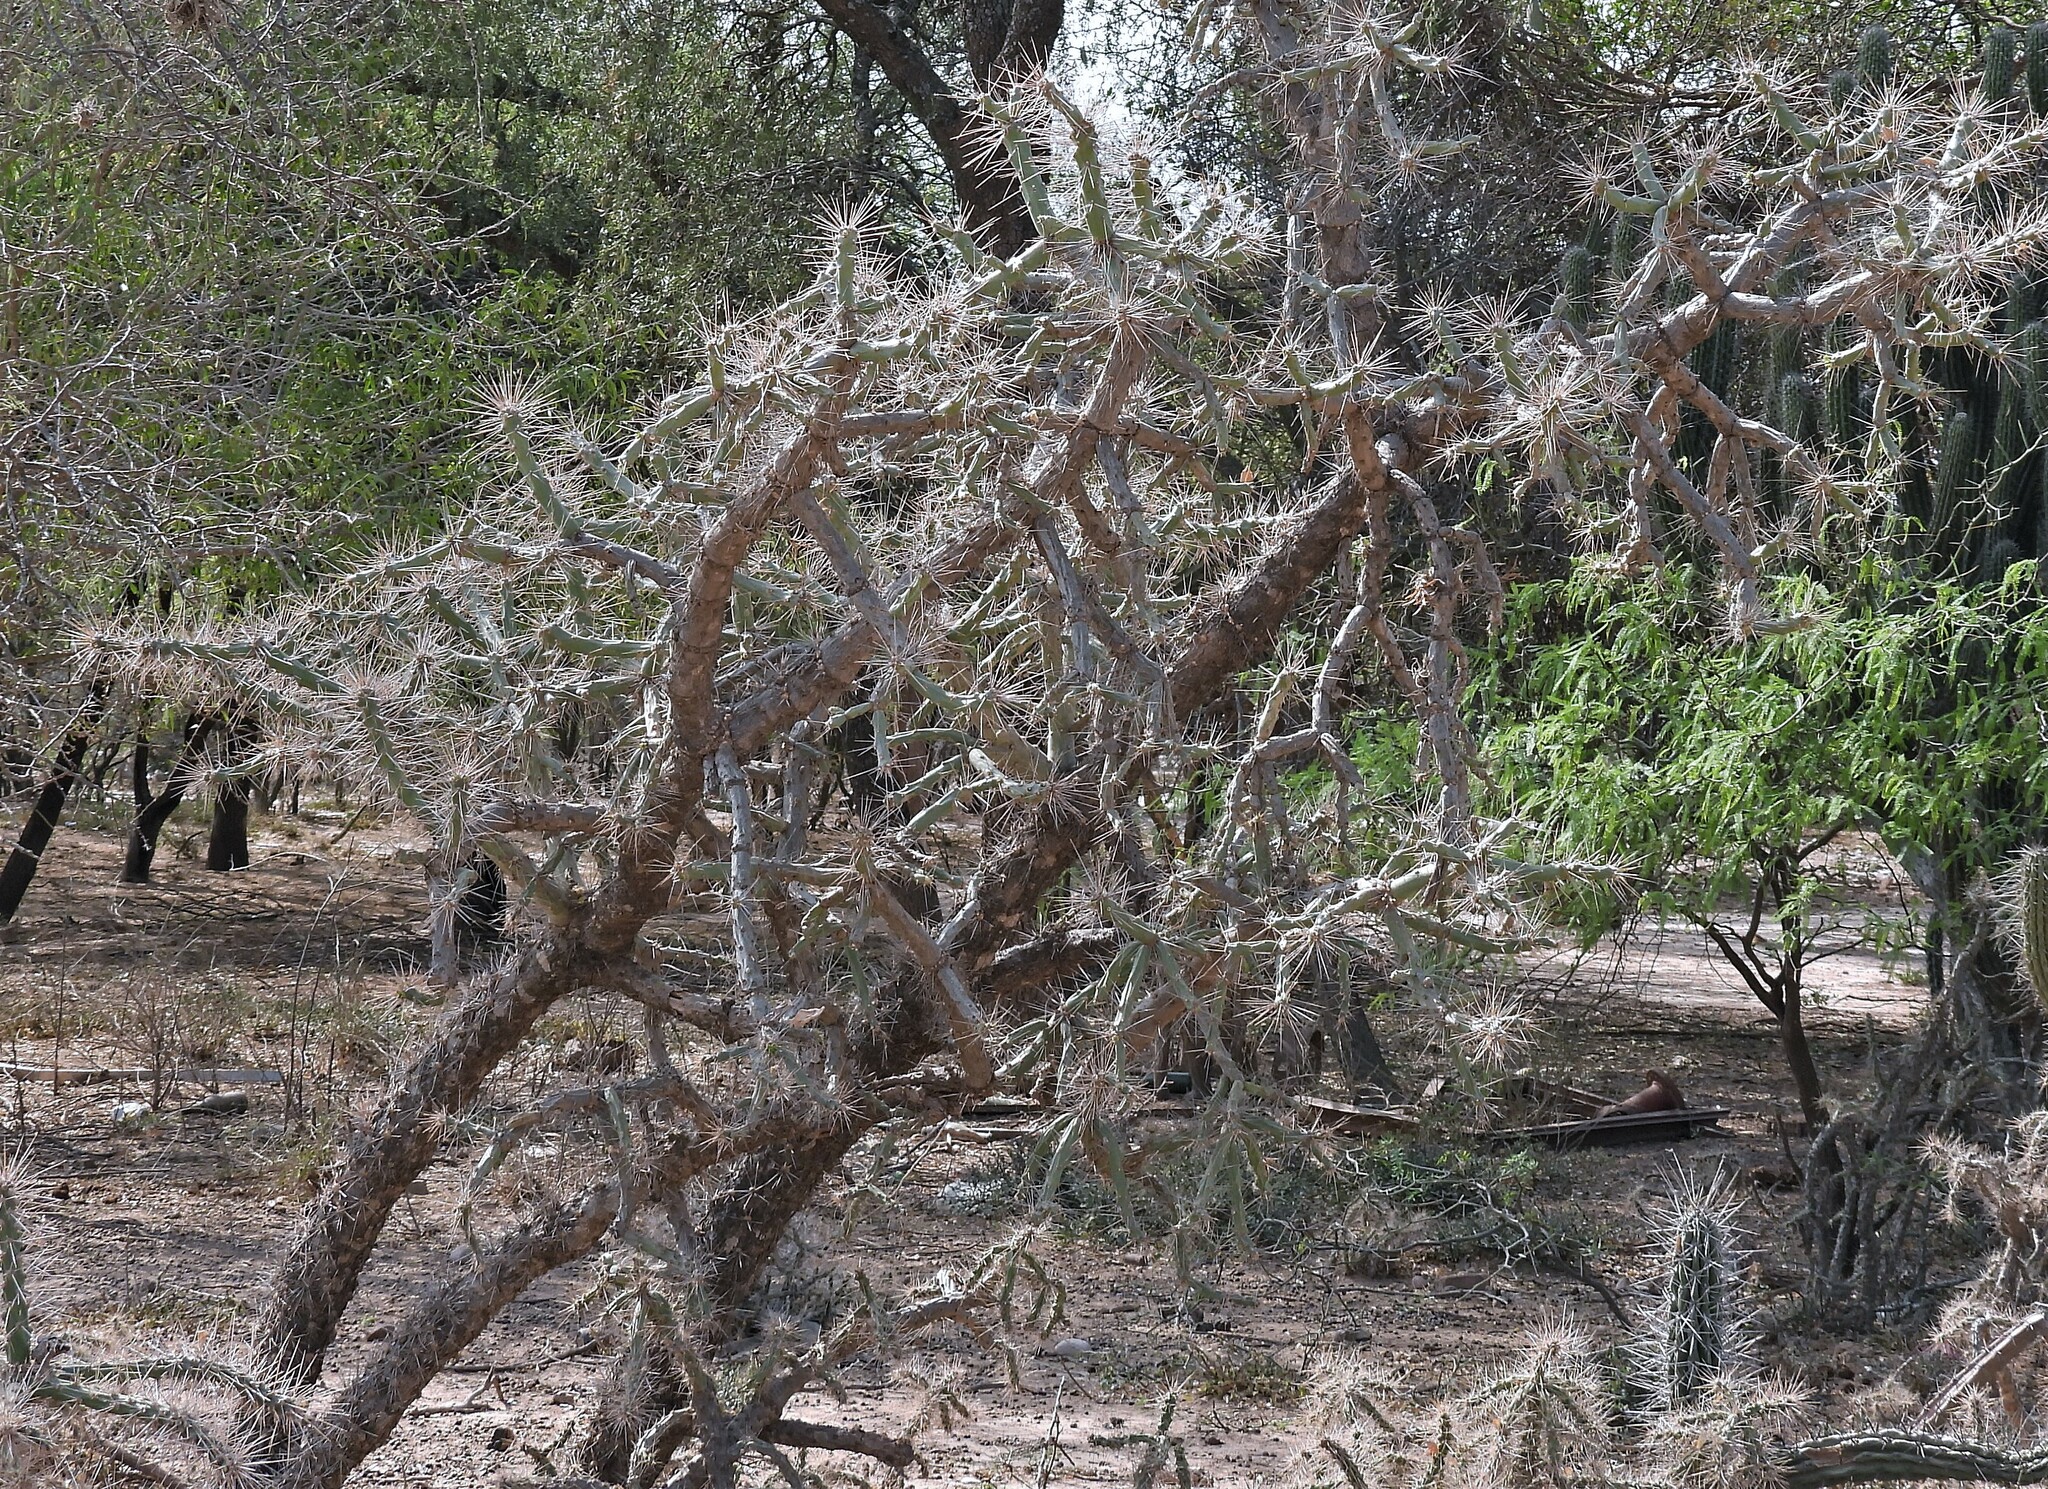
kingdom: Plantae
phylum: Tracheophyta
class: Magnoliopsida
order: Caryophyllales
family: Cactaceae
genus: Quiabentia
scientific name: Quiabentia verticillata
